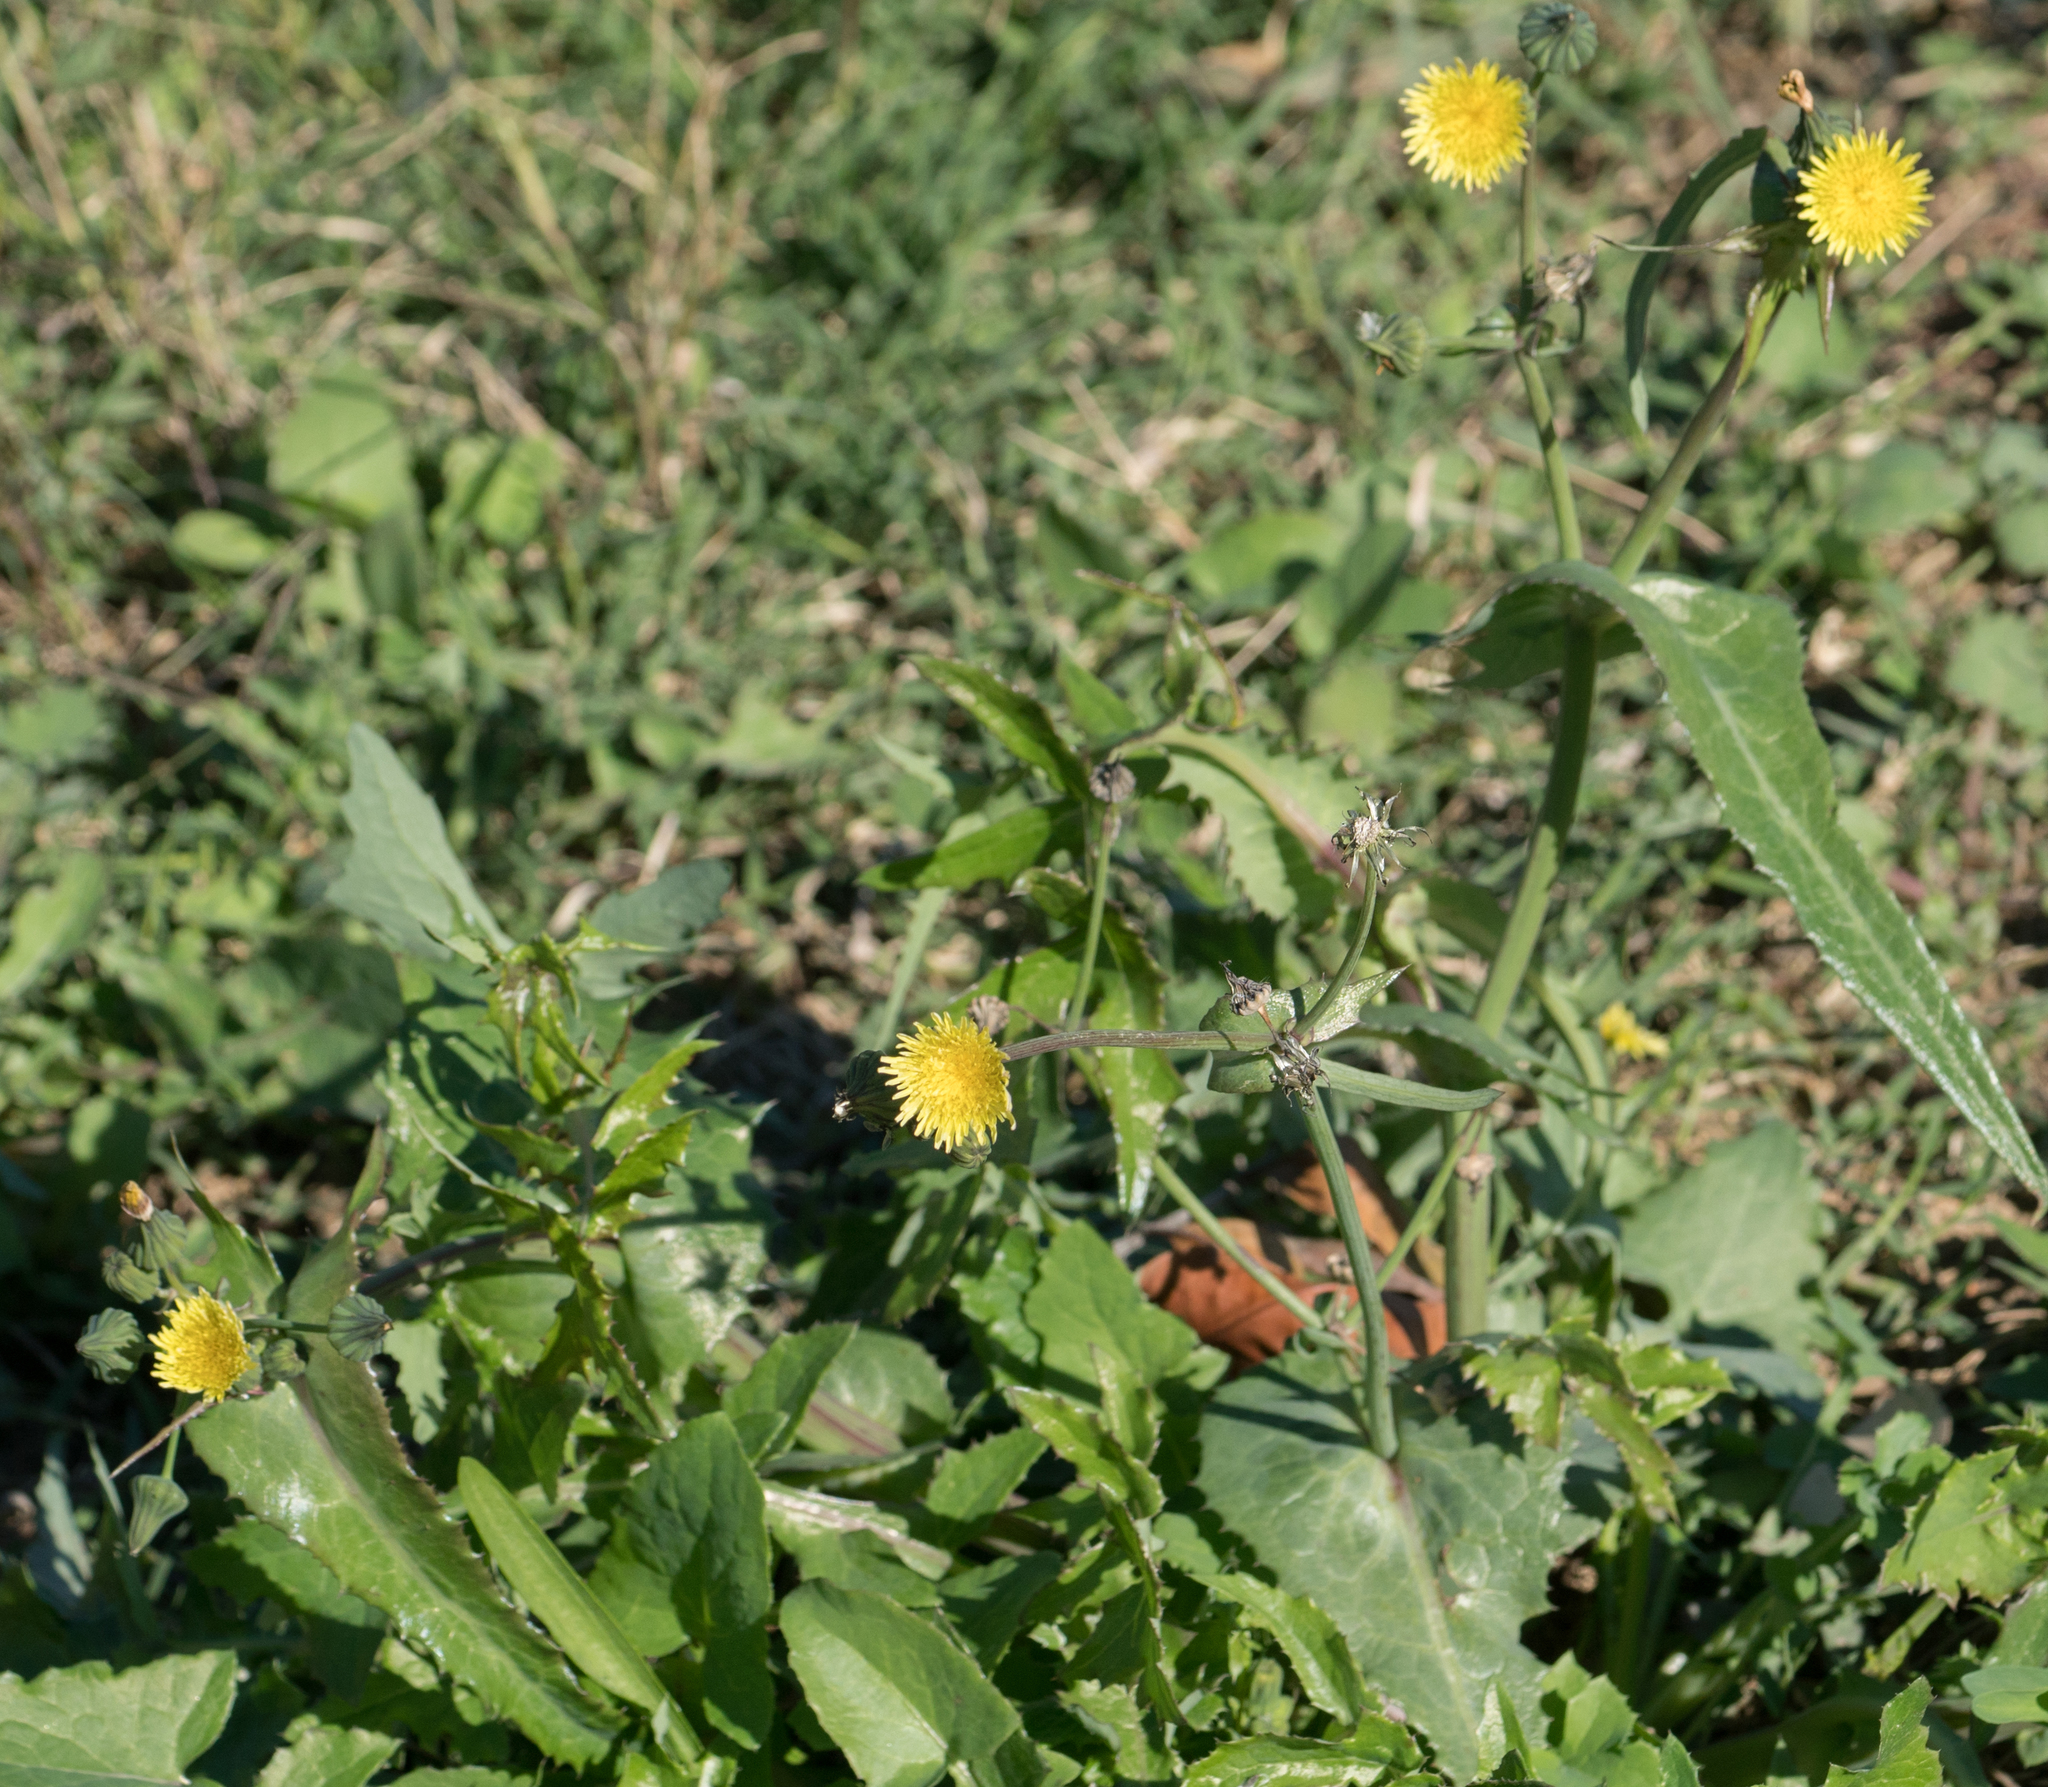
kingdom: Plantae
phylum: Tracheophyta
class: Magnoliopsida
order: Asterales
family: Asteraceae
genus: Sonchus
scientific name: Sonchus oleraceus
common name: Common sowthistle
